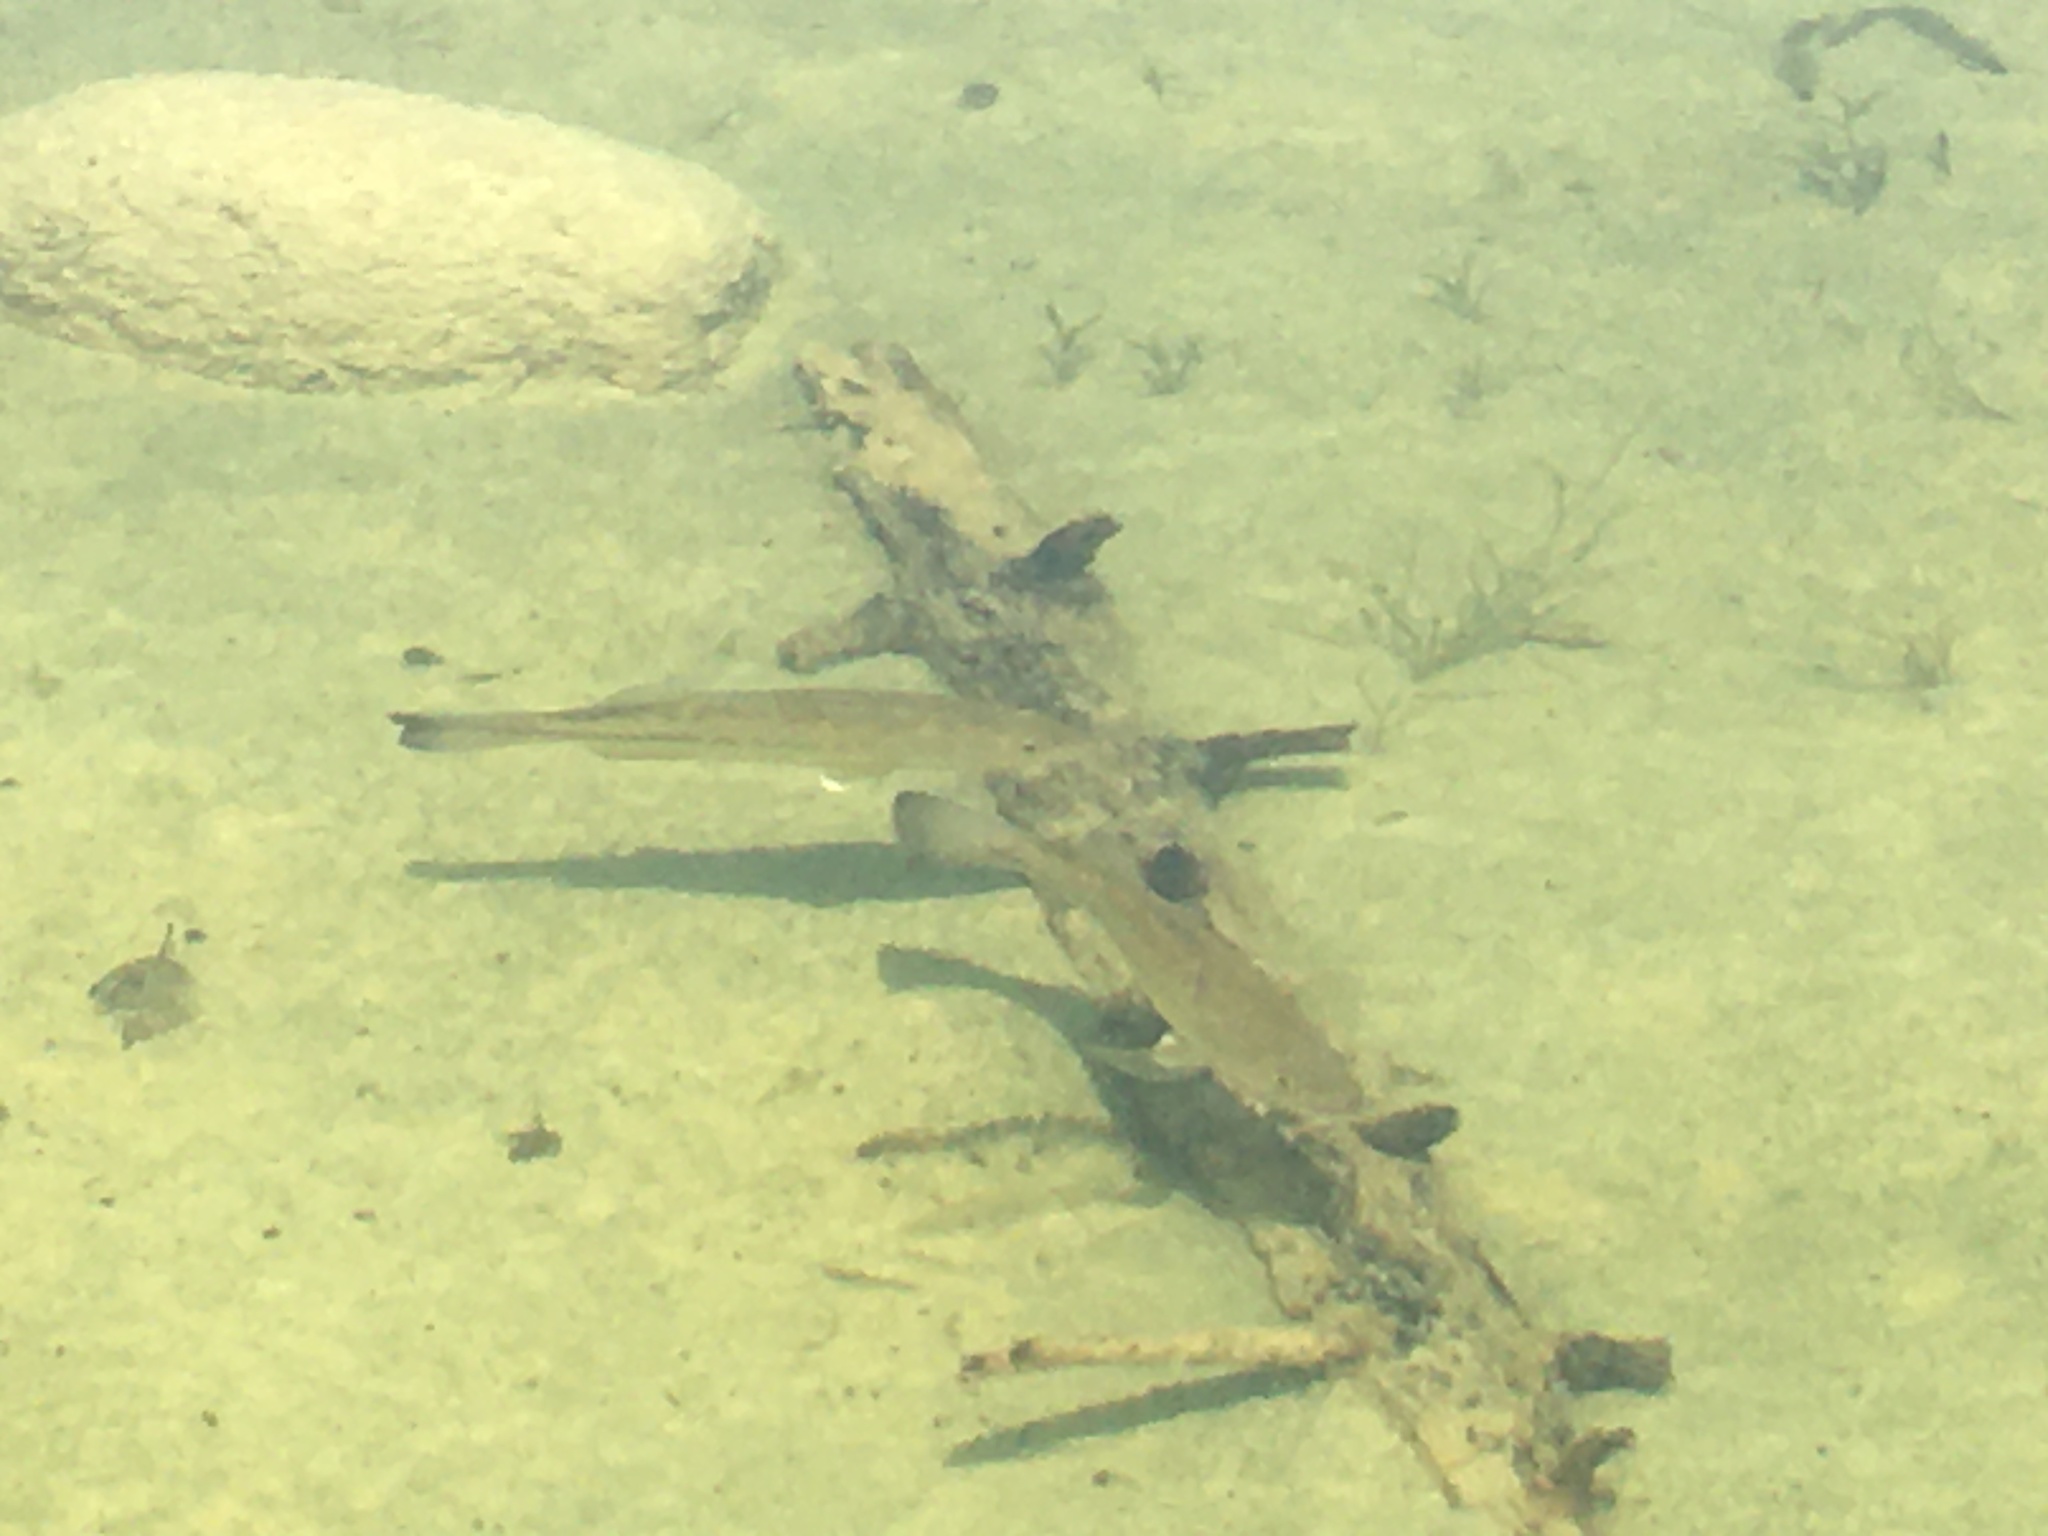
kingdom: Animalia
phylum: Chordata
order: Perciformes
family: Centrarchidae
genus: Micropterus
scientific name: Micropterus
